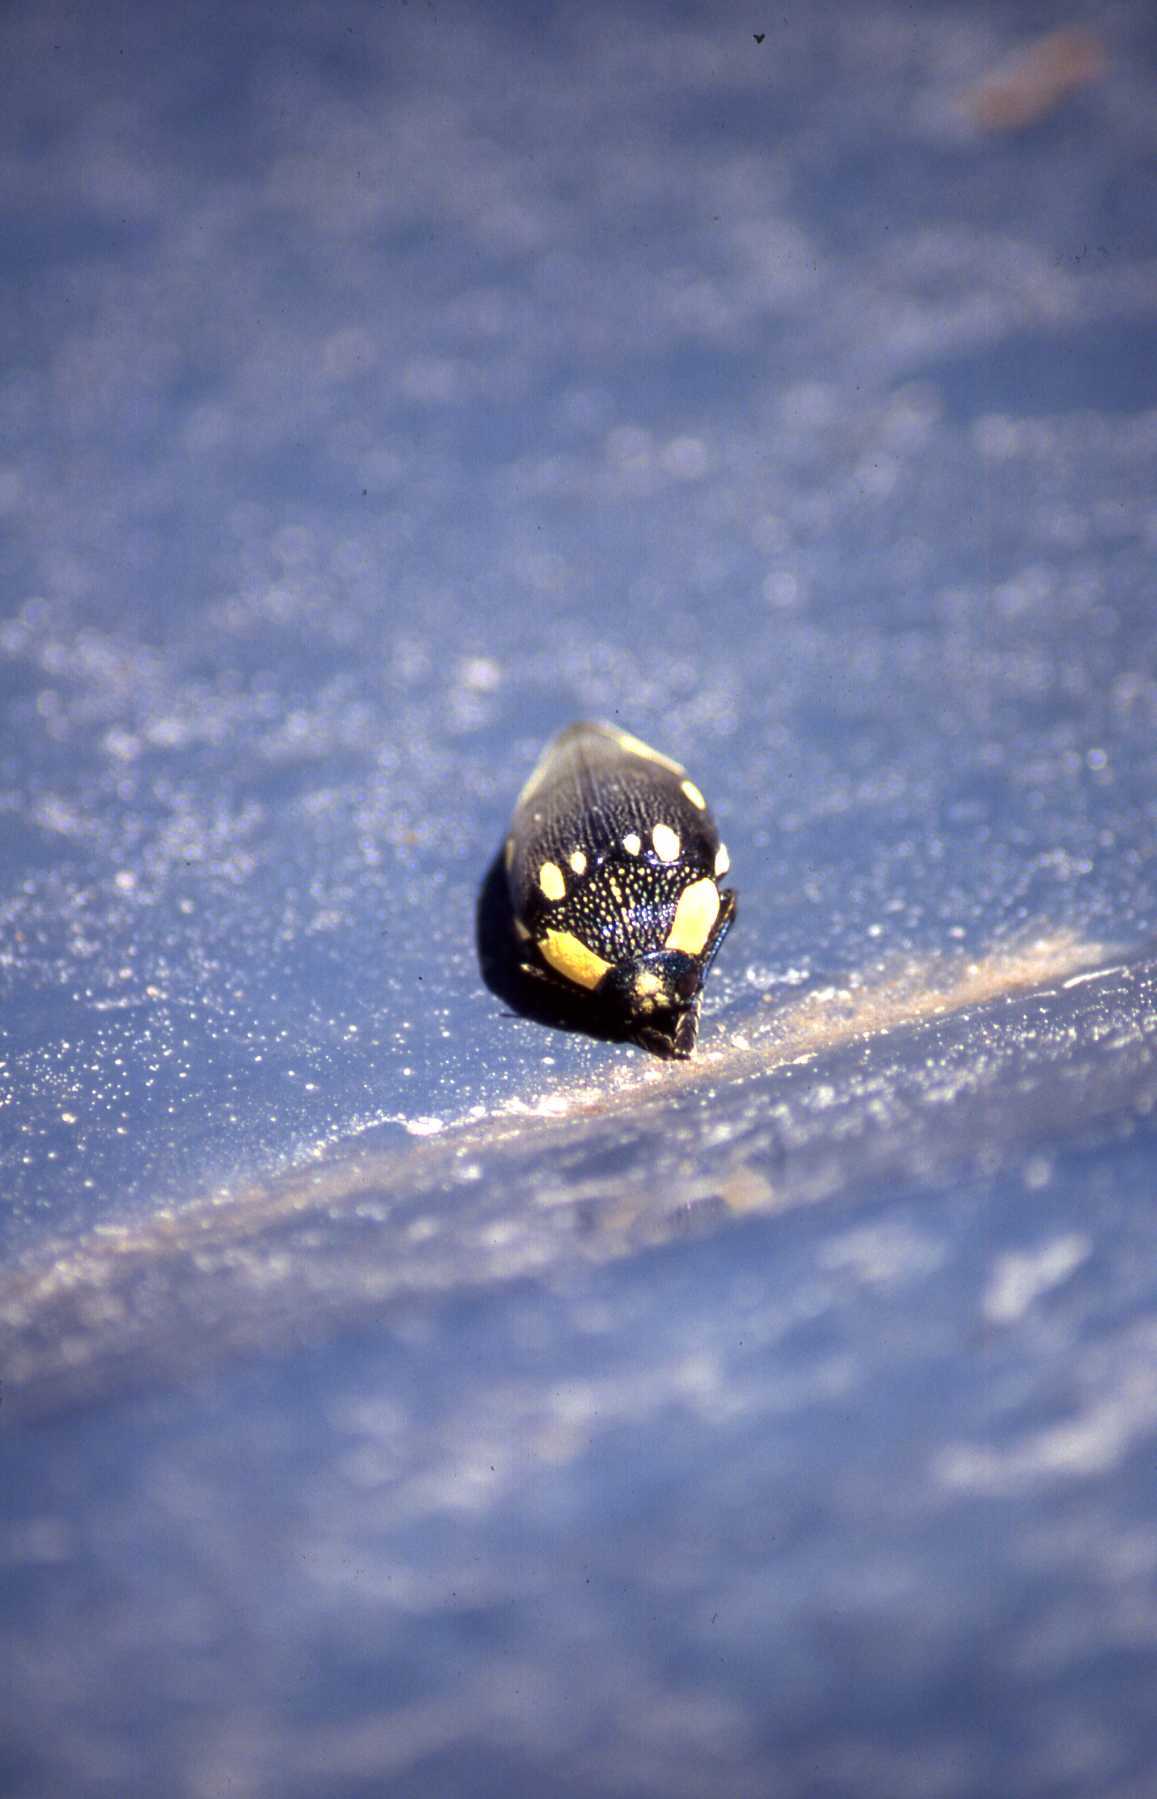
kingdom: Animalia
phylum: Arthropoda
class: Insecta
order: Coleoptera
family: Buprestidae
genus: Sternocera
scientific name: Sternocera orissa
